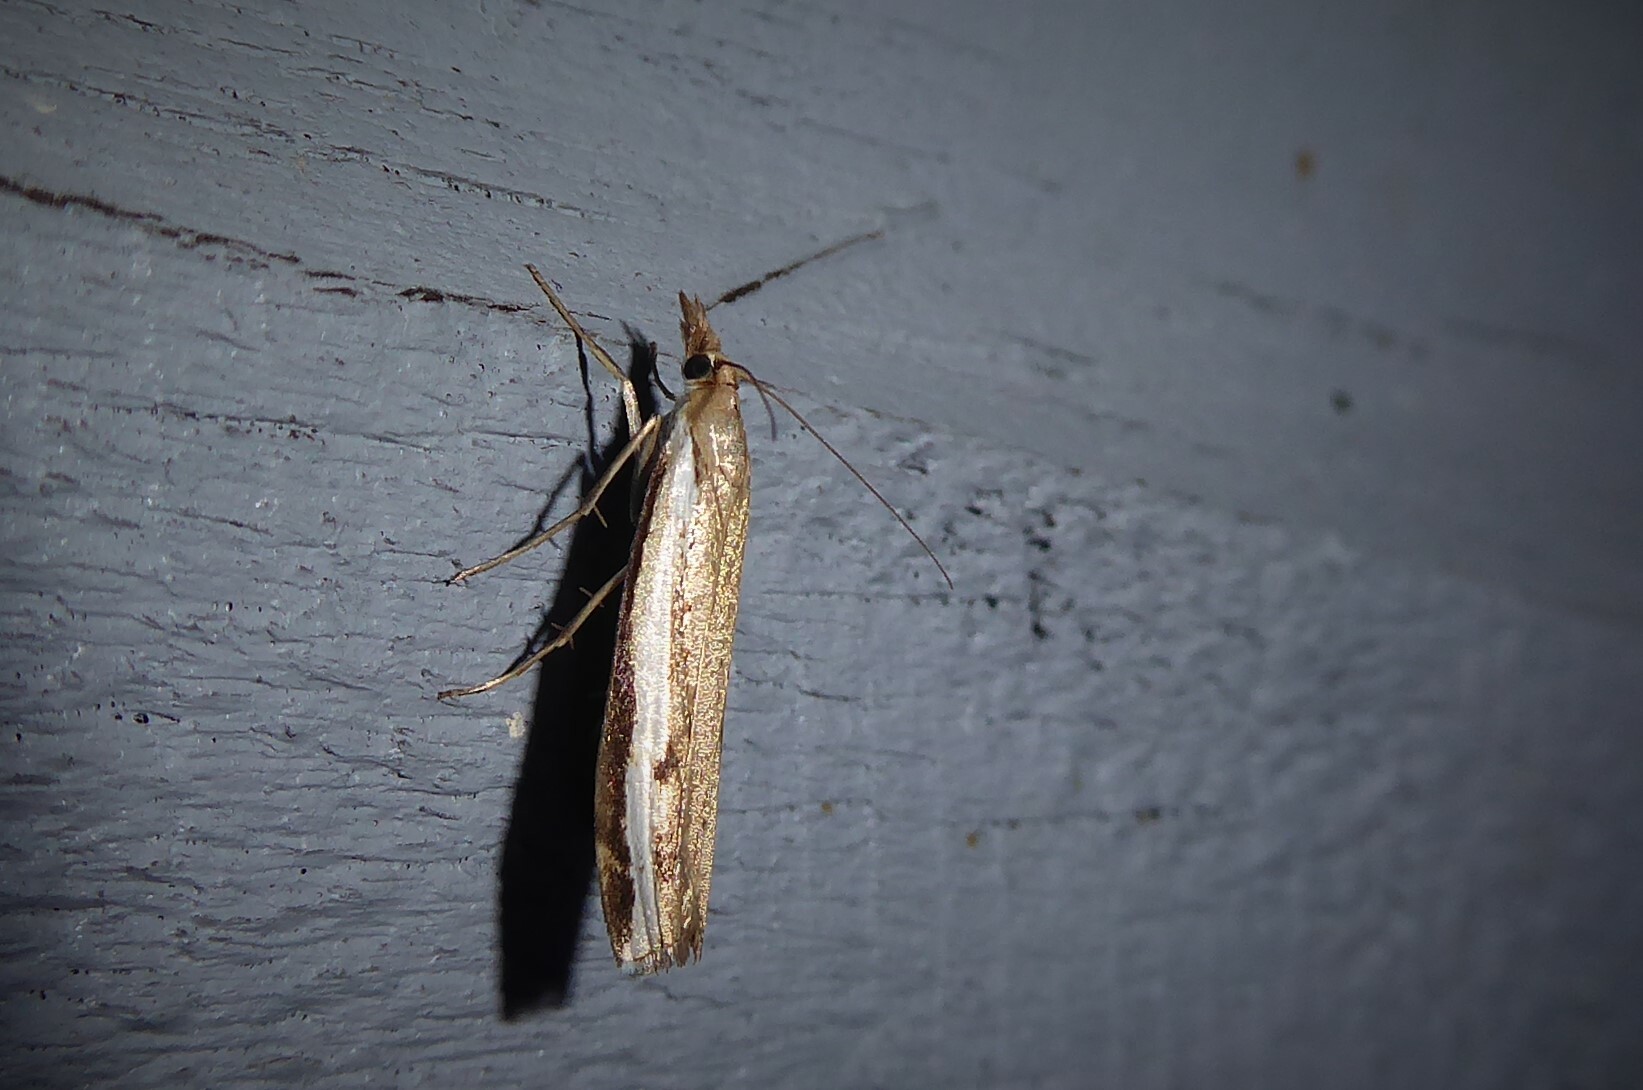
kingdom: Animalia
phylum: Arthropoda
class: Insecta
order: Lepidoptera
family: Crambidae
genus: Orocrambus
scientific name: Orocrambus flexuosellus
